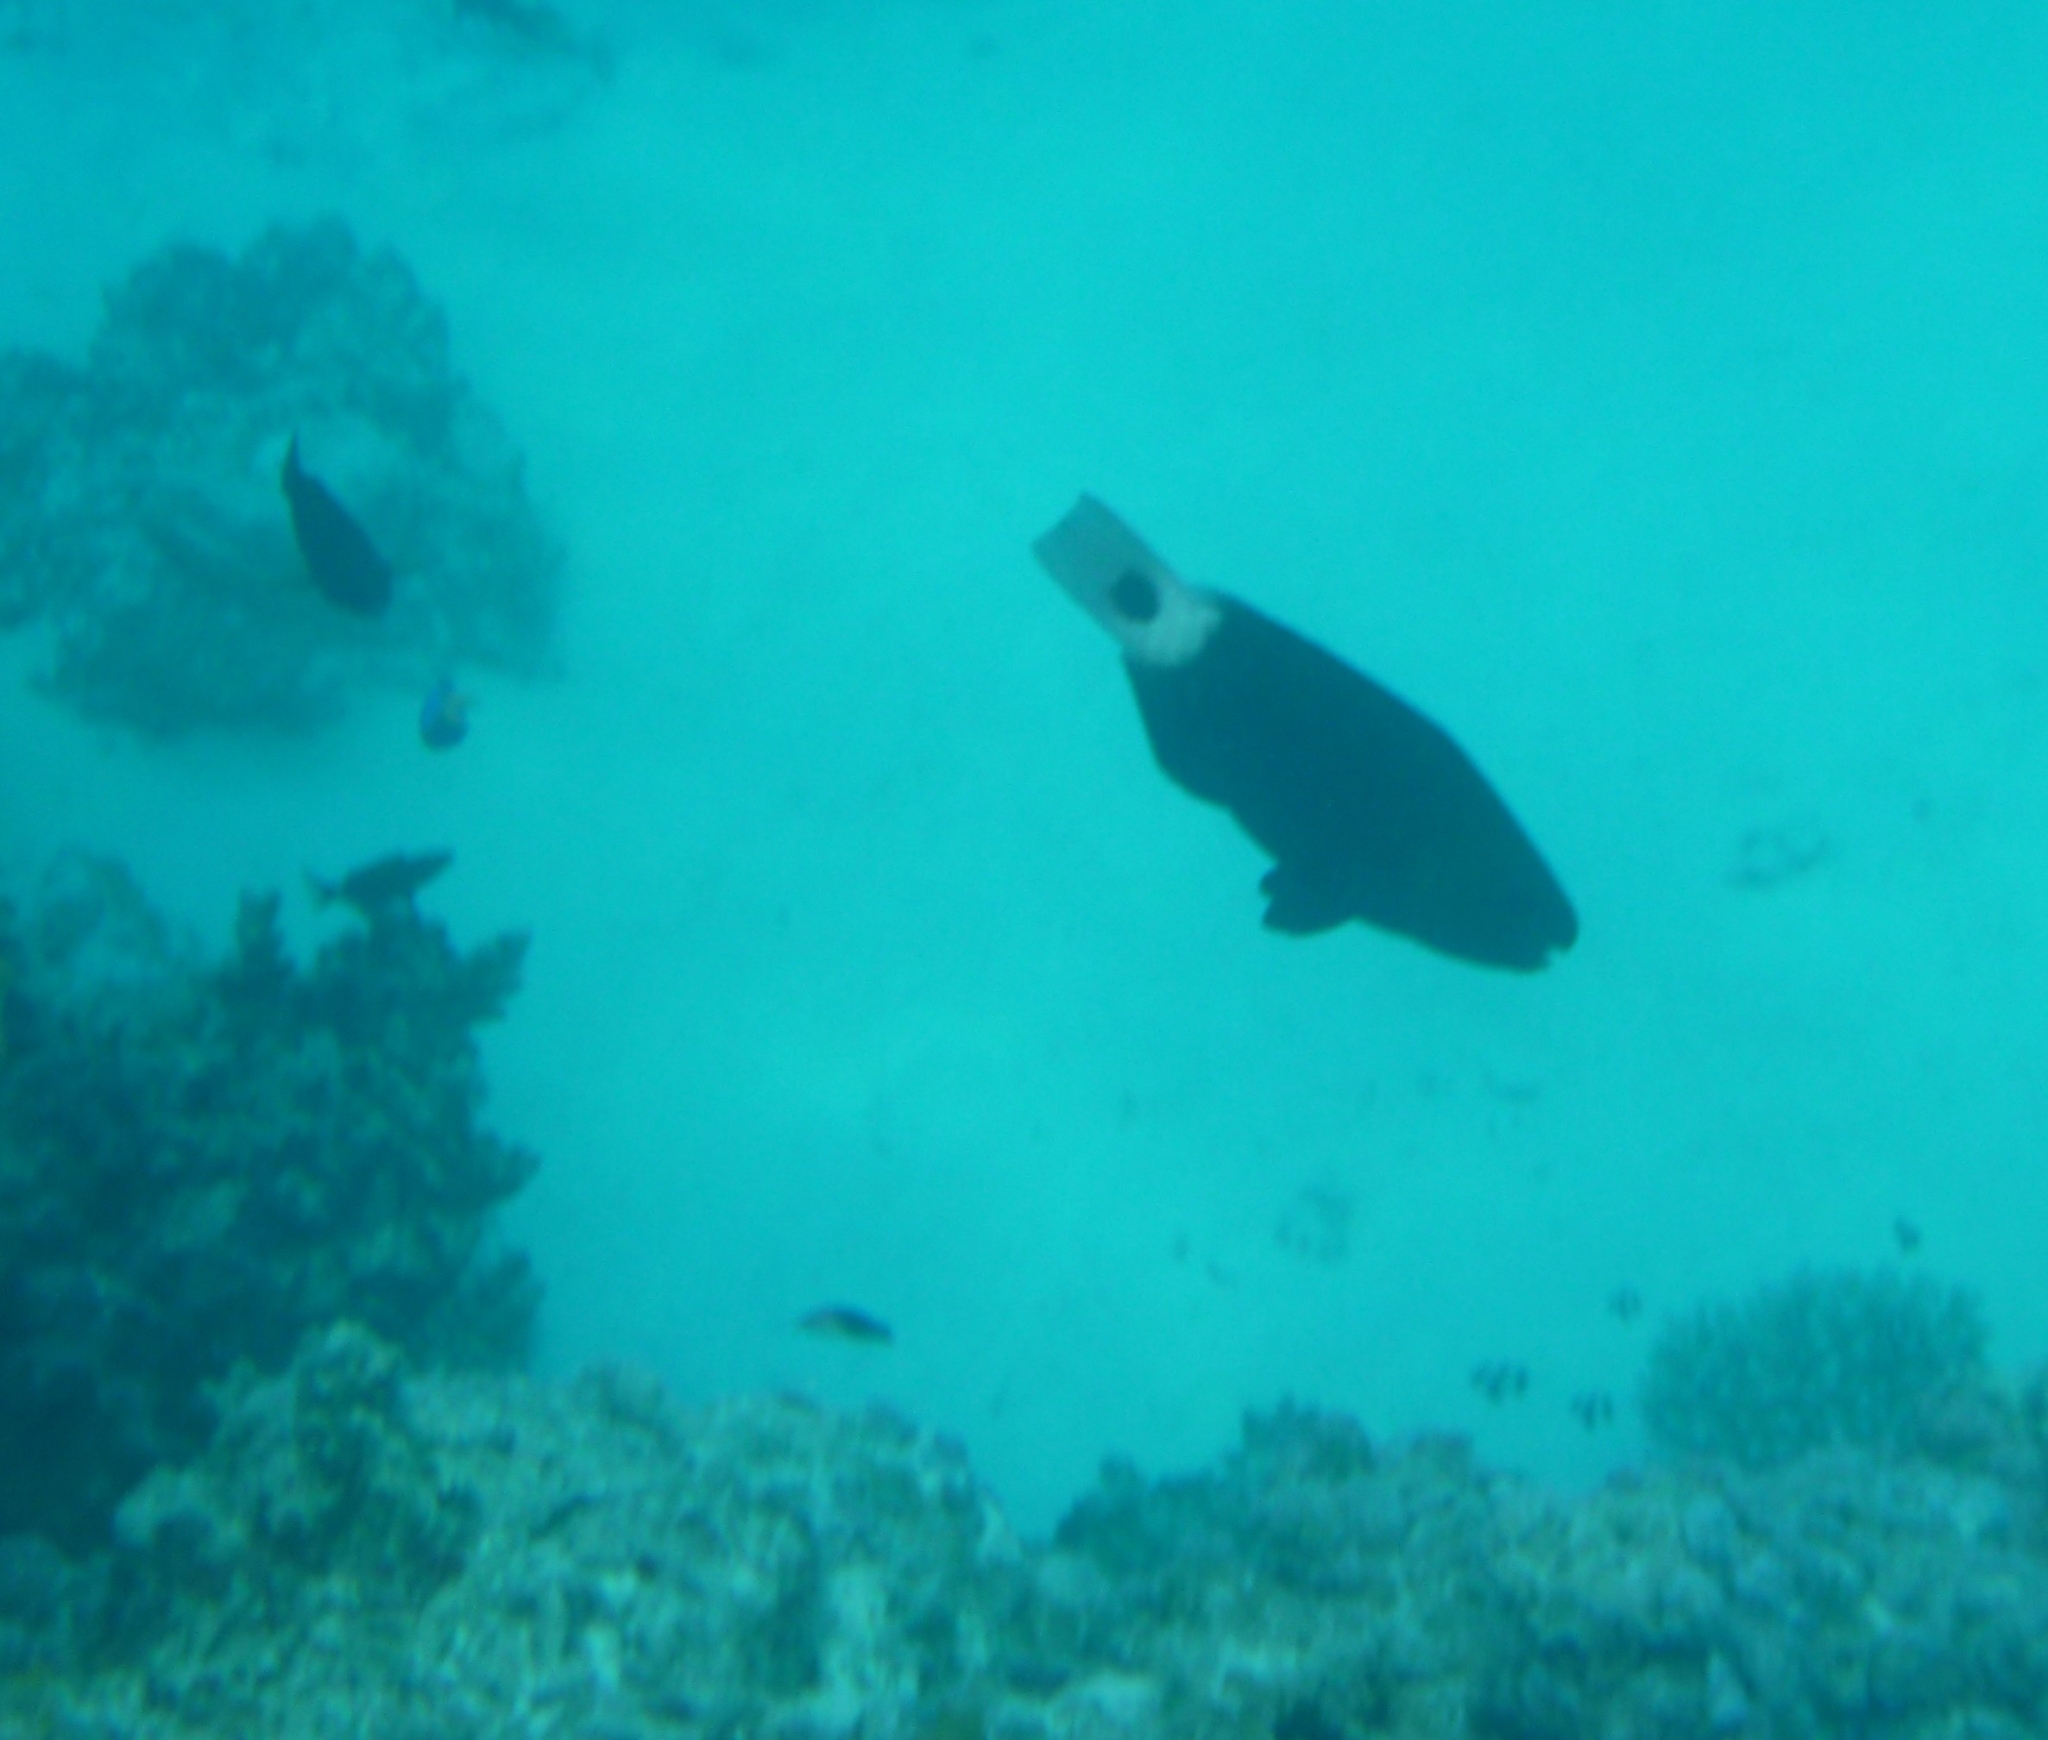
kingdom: Animalia
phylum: Chordata
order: Perciformes
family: Scaridae
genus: Chlorurus
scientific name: Chlorurus spilurus
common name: Bullethead parrotfish
